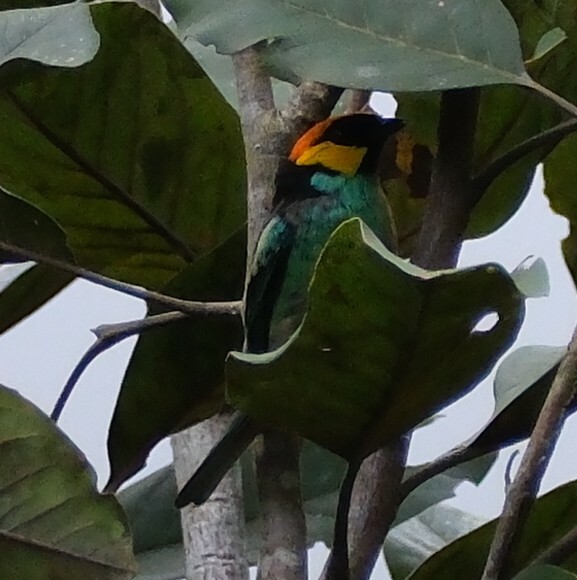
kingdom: Animalia
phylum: Chordata
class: Aves
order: Passeriformes
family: Thraupidae
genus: Tangara
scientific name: Tangara xanthocephala
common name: Saffron-crowned tanager
